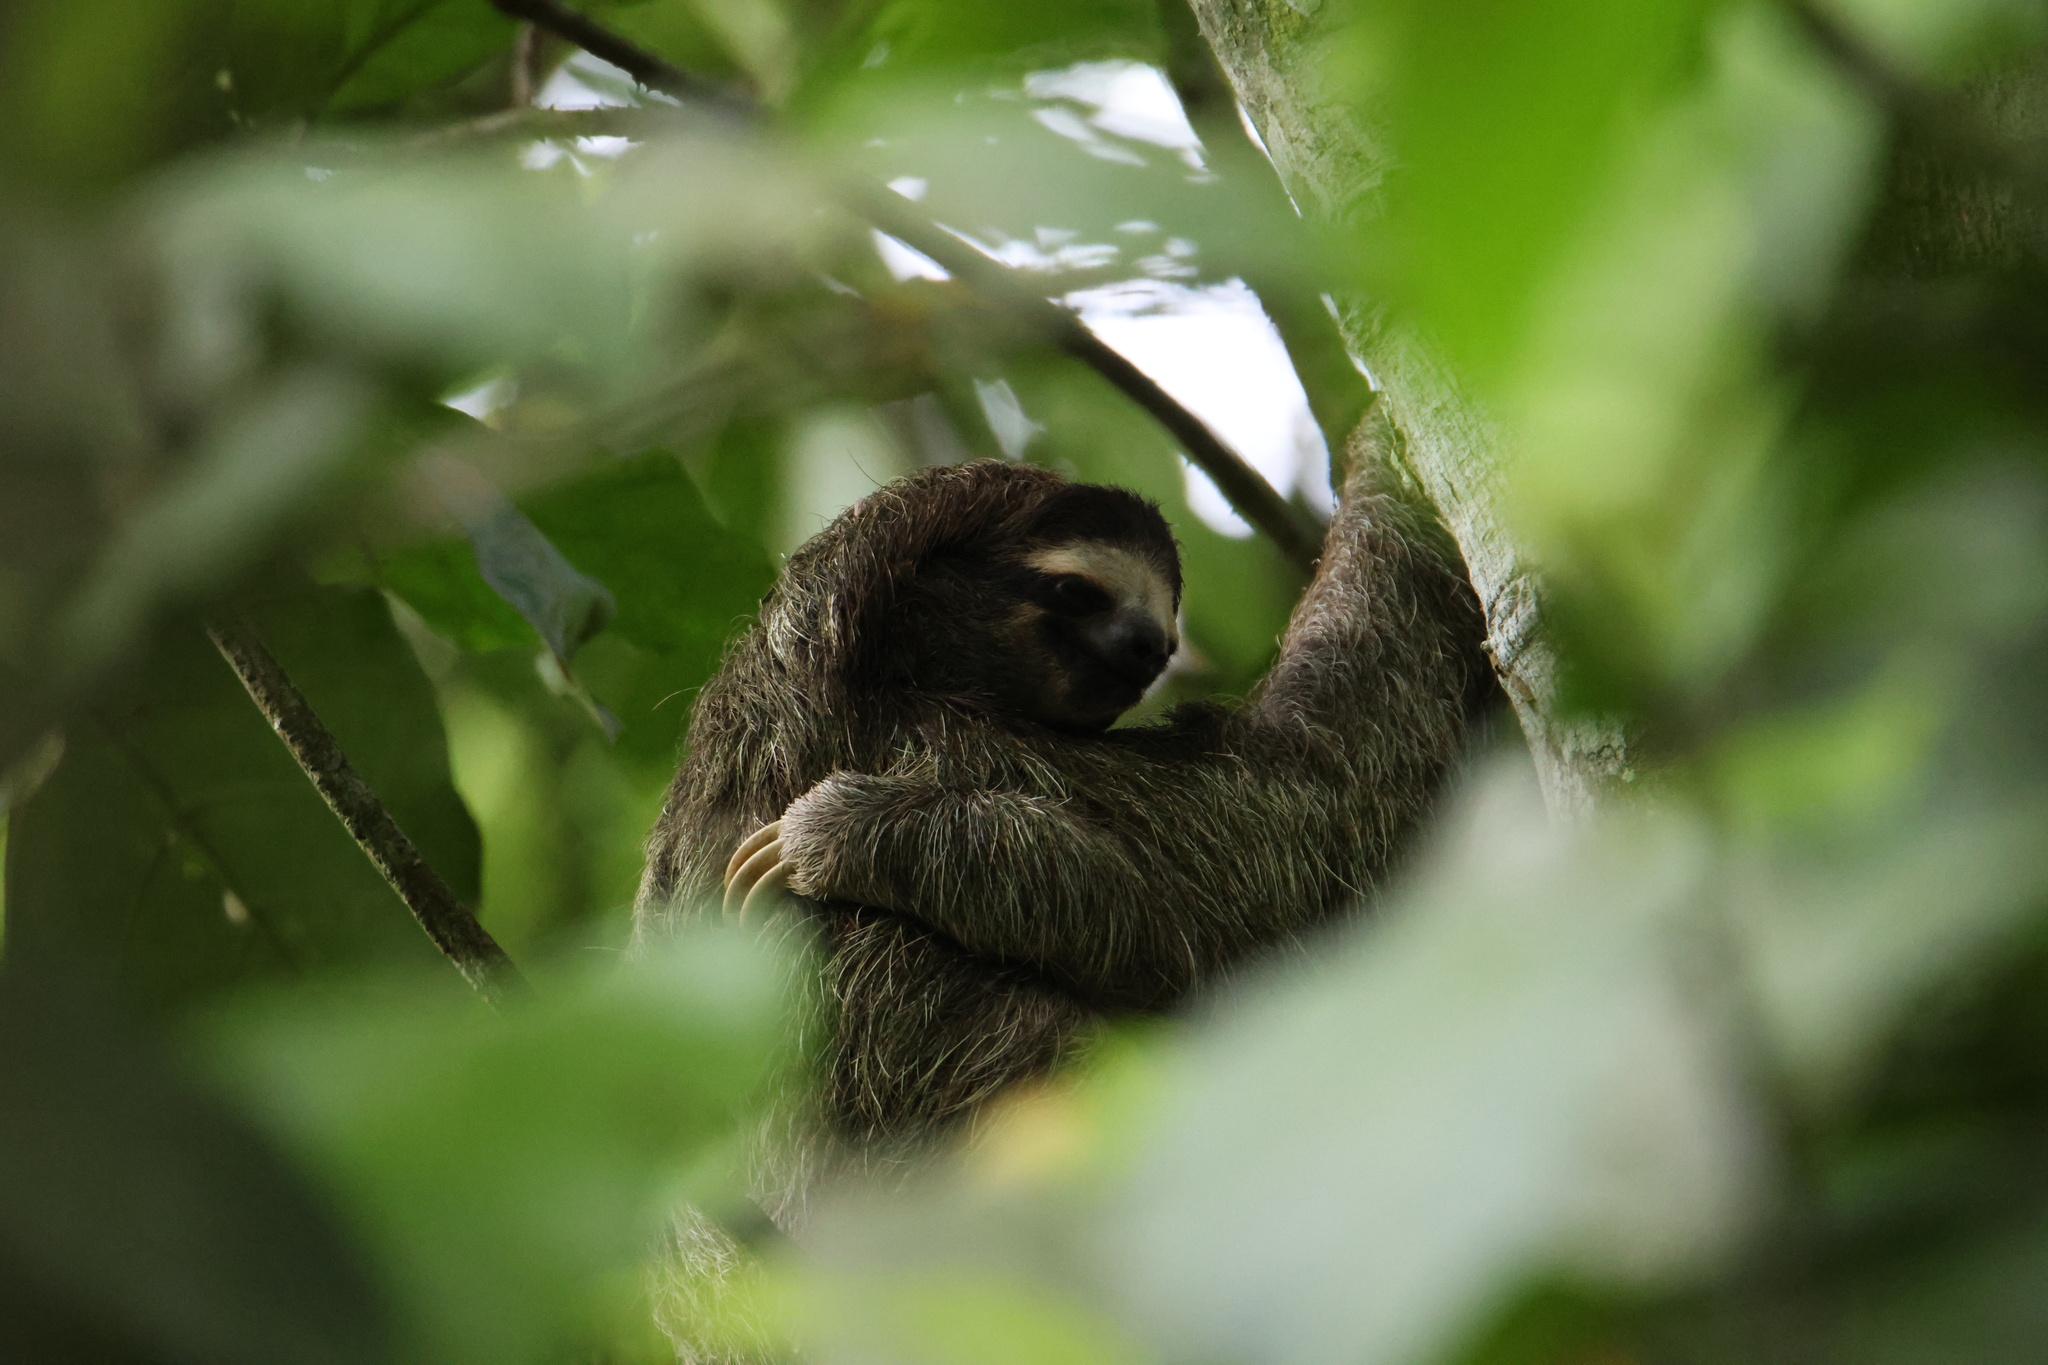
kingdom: Animalia
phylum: Chordata
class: Mammalia
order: Pilosa
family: Bradypodidae
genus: Bradypus
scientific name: Bradypus variegatus
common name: Brown-throated three-toed sloth
